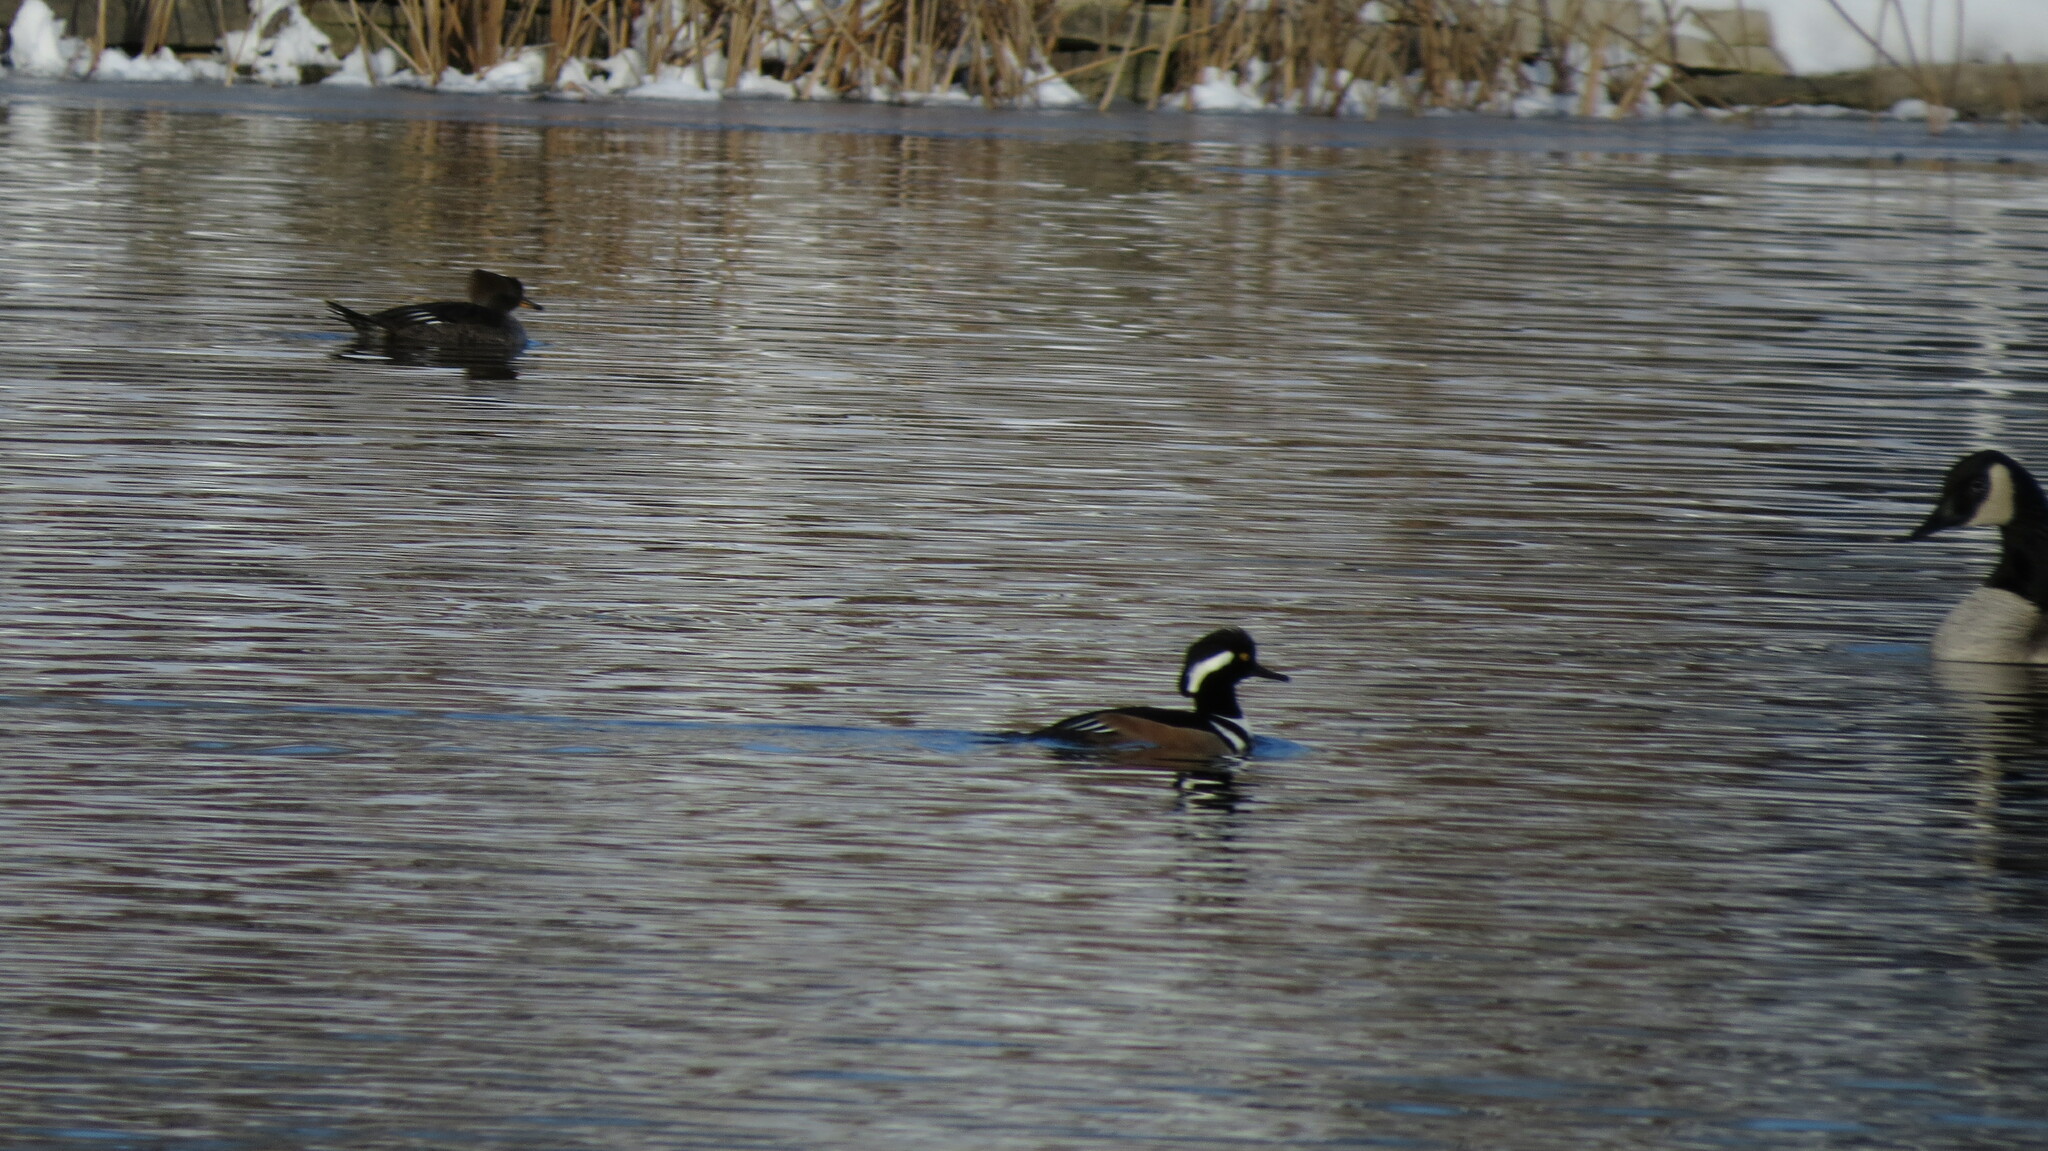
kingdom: Animalia
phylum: Chordata
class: Aves
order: Anseriformes
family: Anatidae
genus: Lophodytes
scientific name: Lophodytes cucullatus
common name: Hooded merganser
